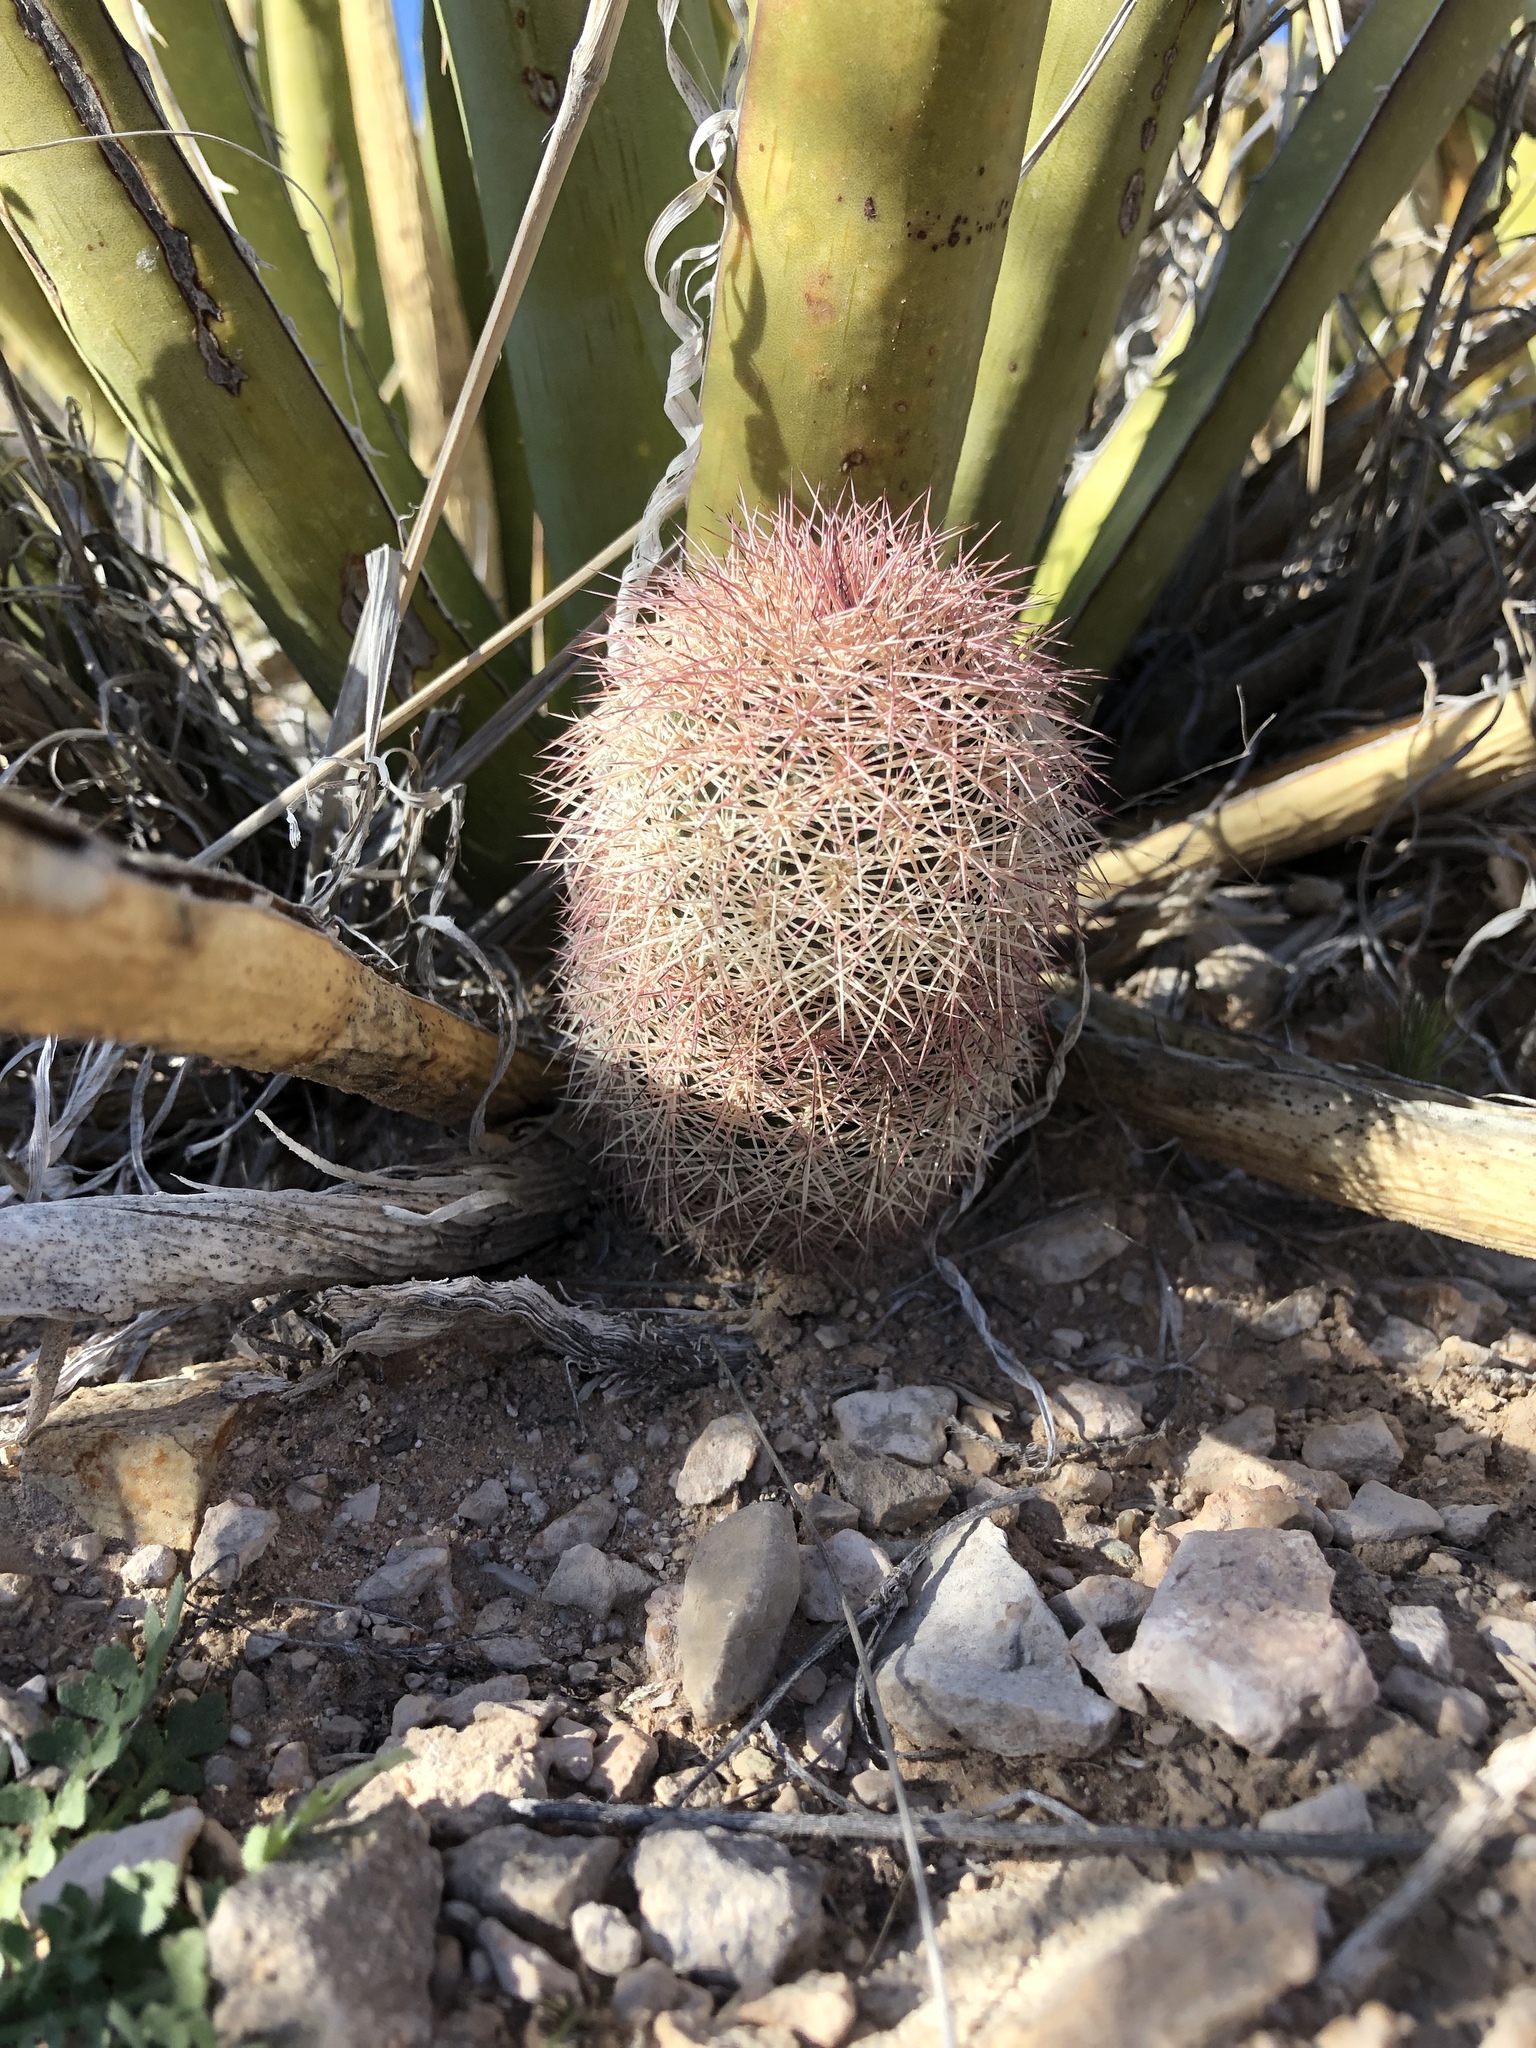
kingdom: Plantae
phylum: Tracheophyta
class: Magnoliopsida
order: Caryophyllales
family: Cactaceae
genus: Echinocereus
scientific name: Echinocereus dasyacanthus
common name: Spiny hedgehog cactus
